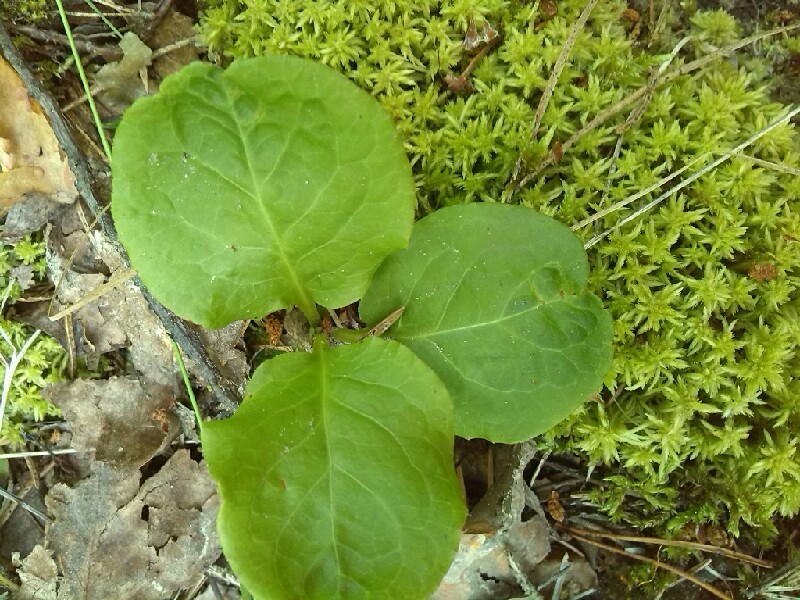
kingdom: Plantae
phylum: Tracheophyta
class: Magnoliopsida
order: Ericales
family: Ericaceae
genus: Moneses
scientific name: Moneses uniflora
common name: One-flowered wintergreen
